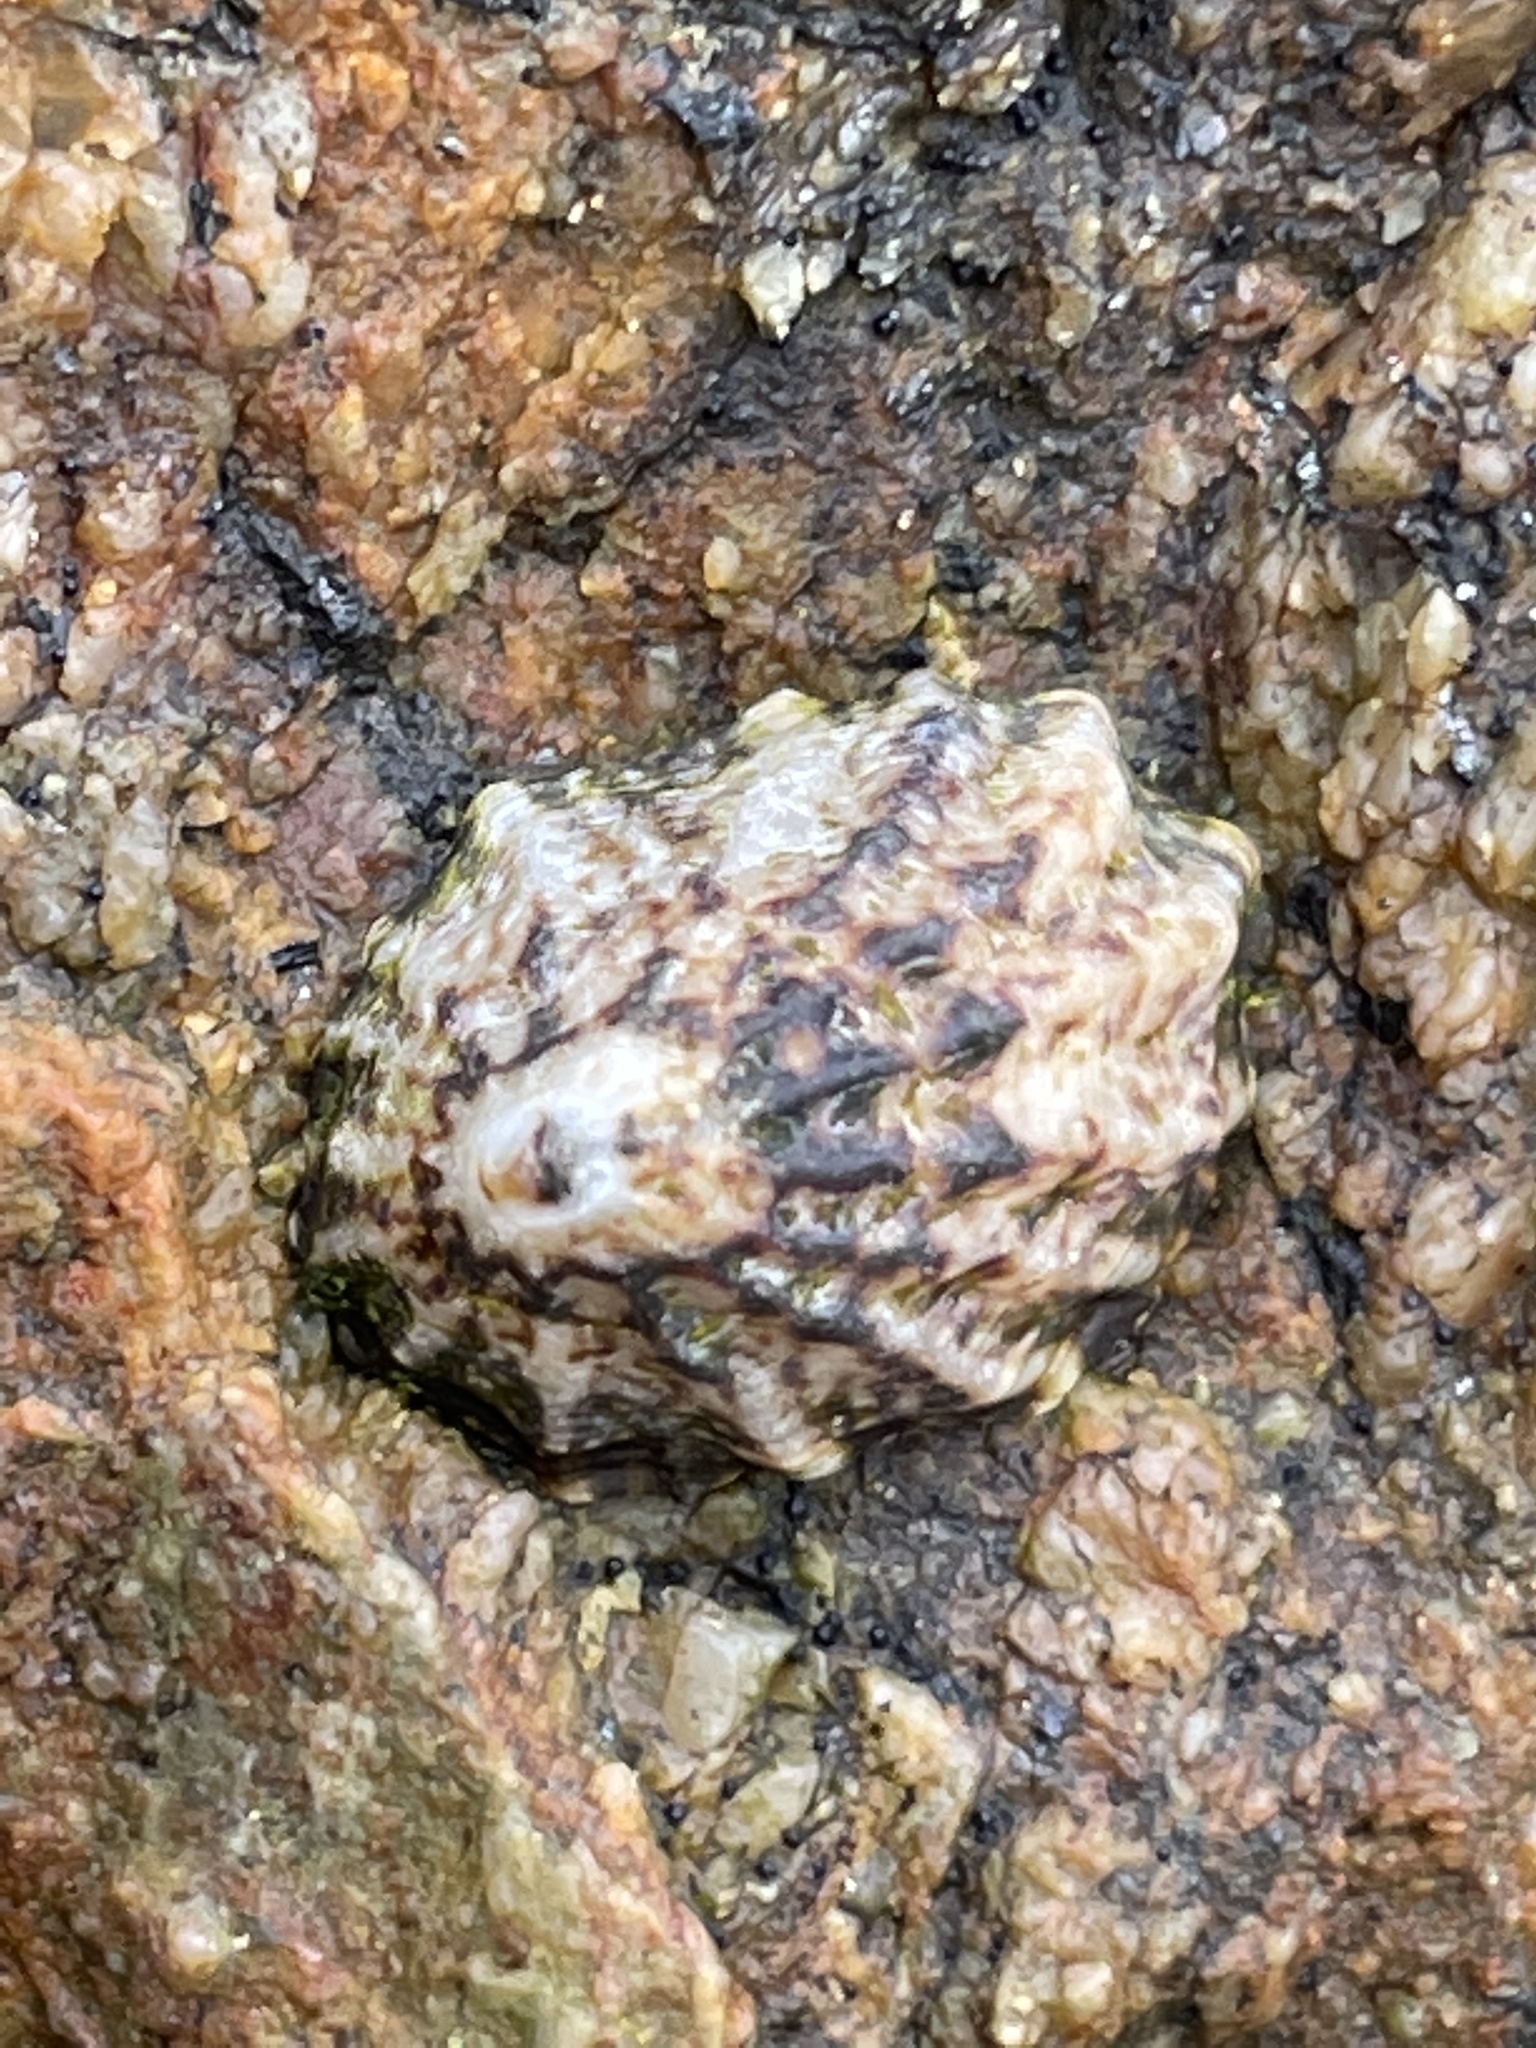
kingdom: Animalia
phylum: Mollusca
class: Gastropoda
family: Lottiidae
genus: Lottia
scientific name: Lottia scabra
